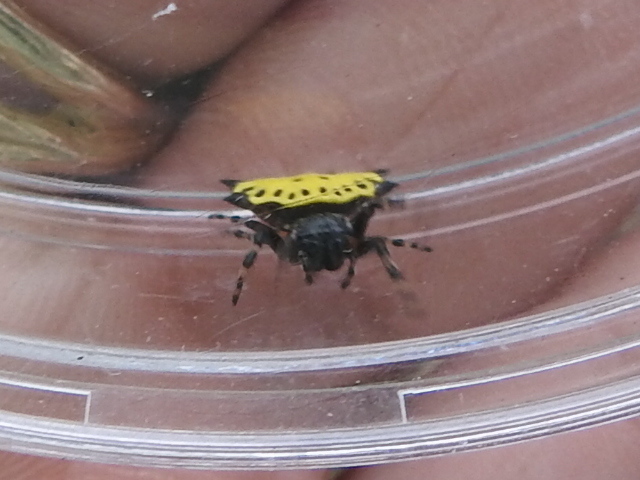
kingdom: Animalia
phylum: Arthropoda
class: Arachnida
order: Araneae
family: Araneidae
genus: Gasteracantha
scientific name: Gasteracantha cancriformis
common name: Orb weavers
